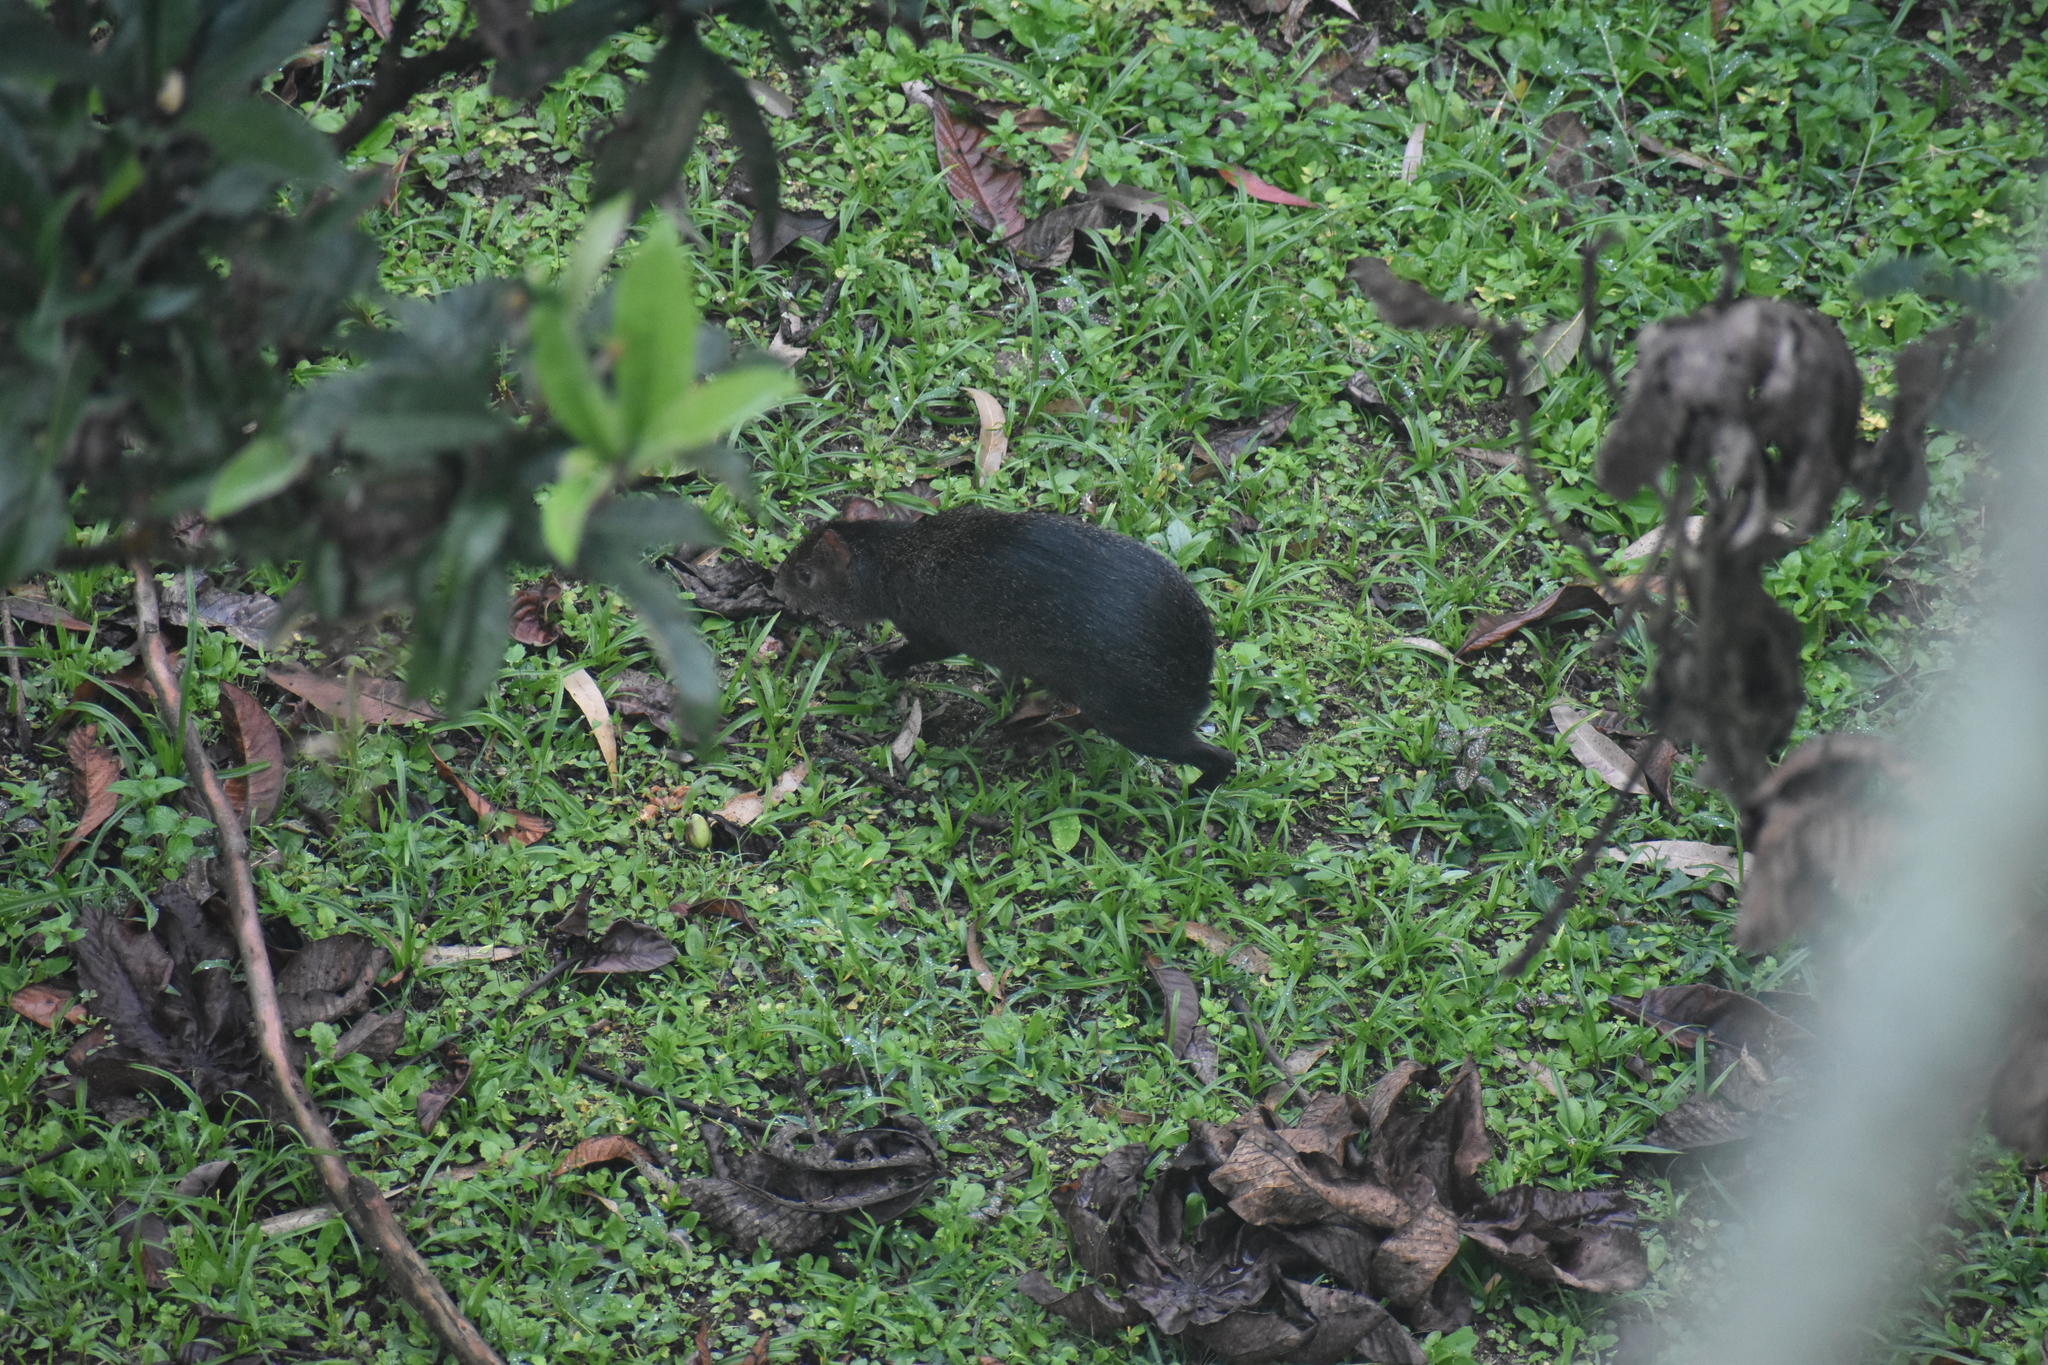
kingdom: Animalia
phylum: Chordata
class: Mammalia
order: Rodentia
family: Dasyproctidae
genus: Dasyprocta
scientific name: Dasyprocta punctata
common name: Central american agouti
